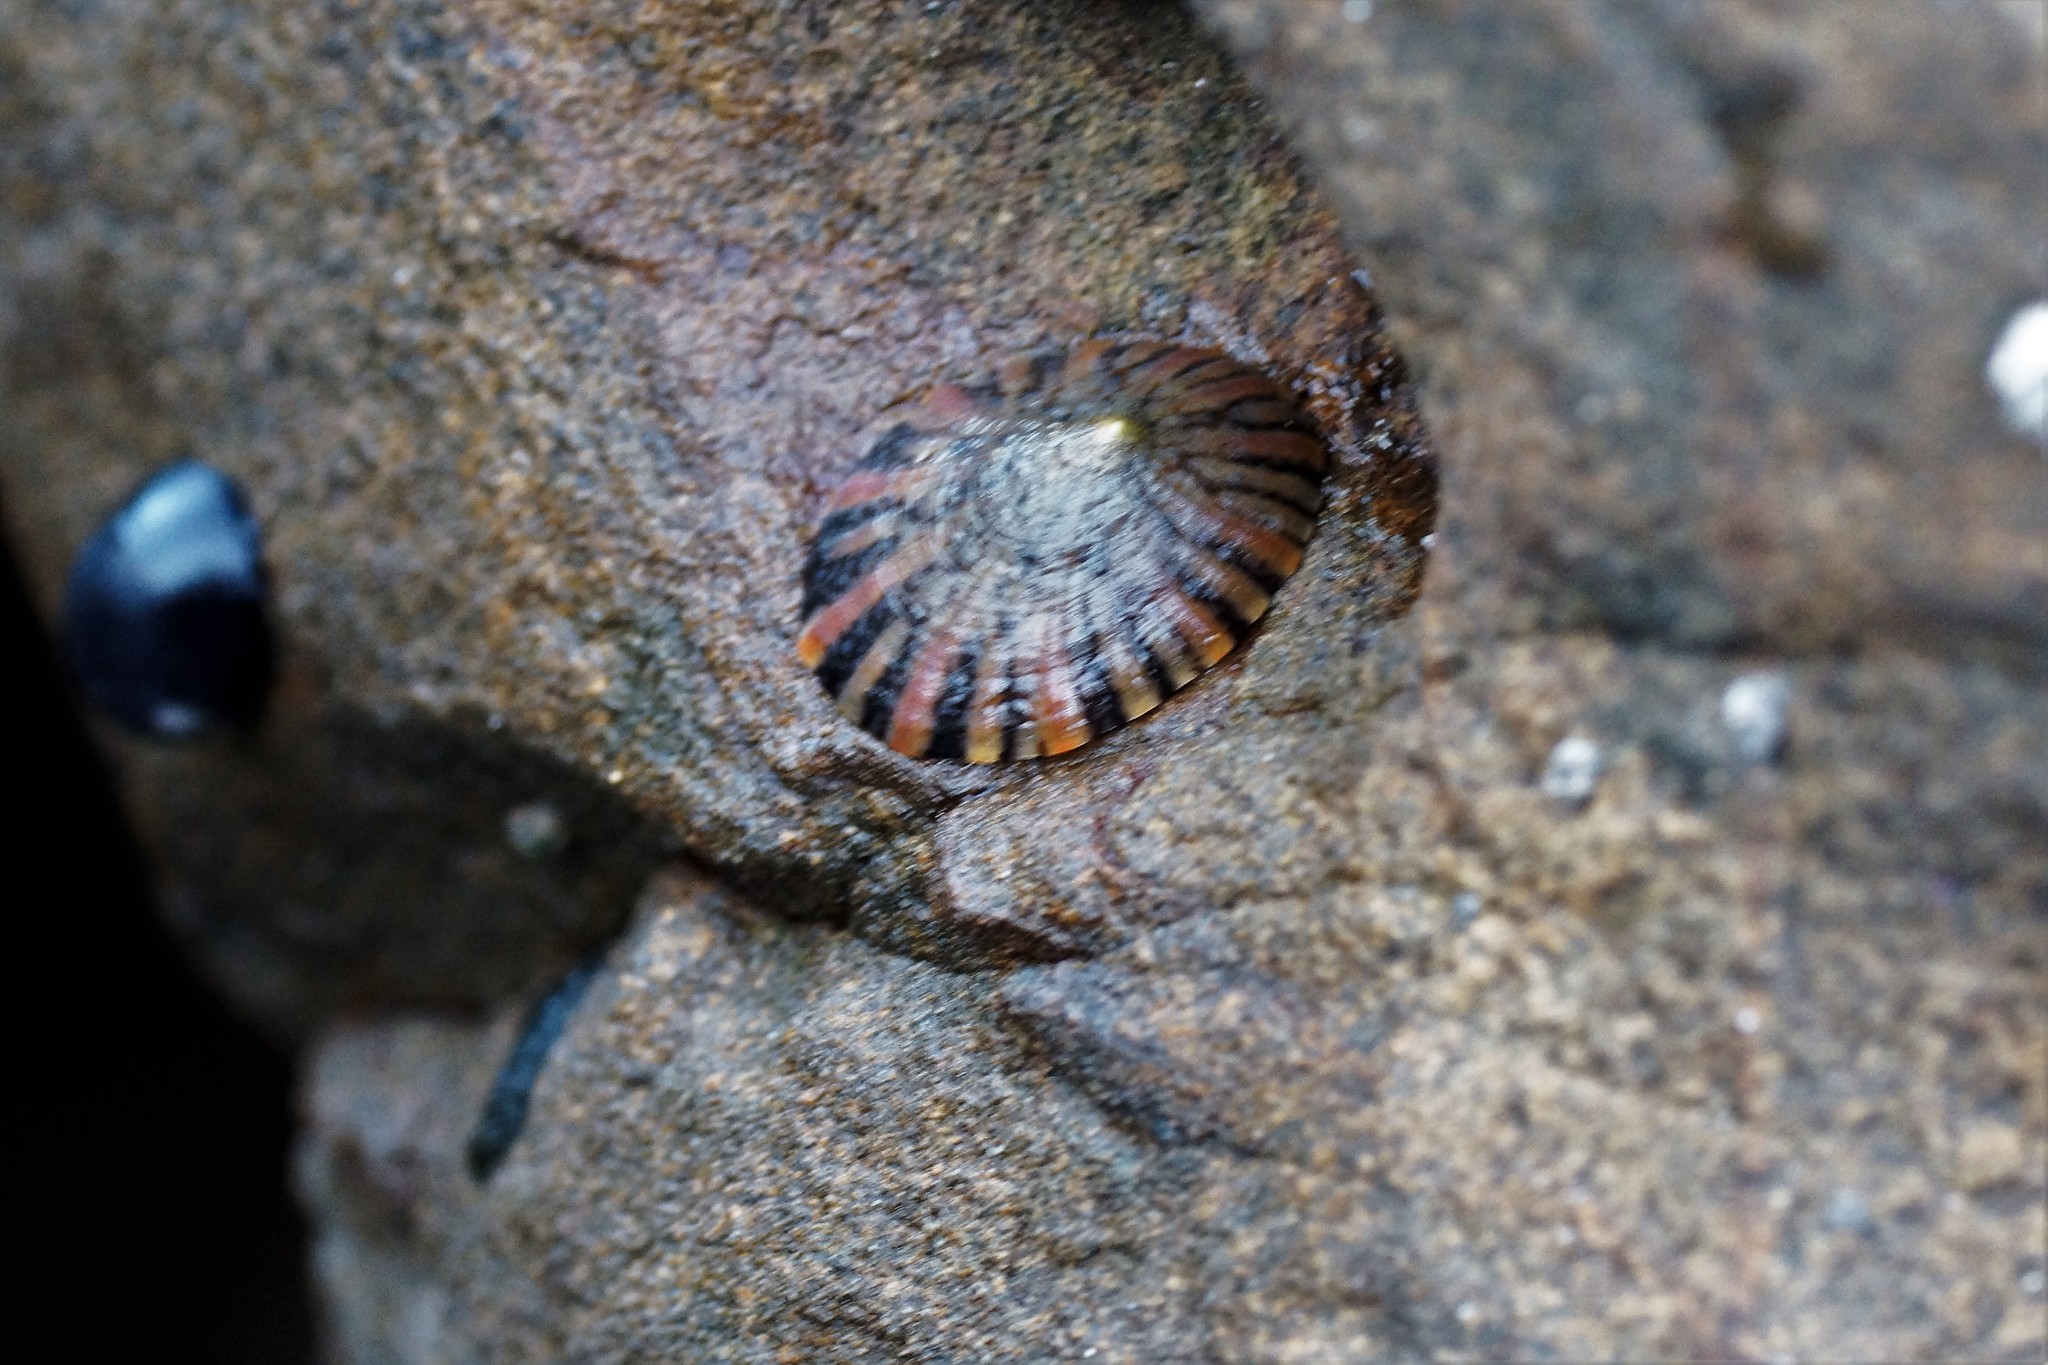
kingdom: Animalia
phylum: Mollusca
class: Gastropoda
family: Nacellidae
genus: Cellana
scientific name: Cellana tramoserica
